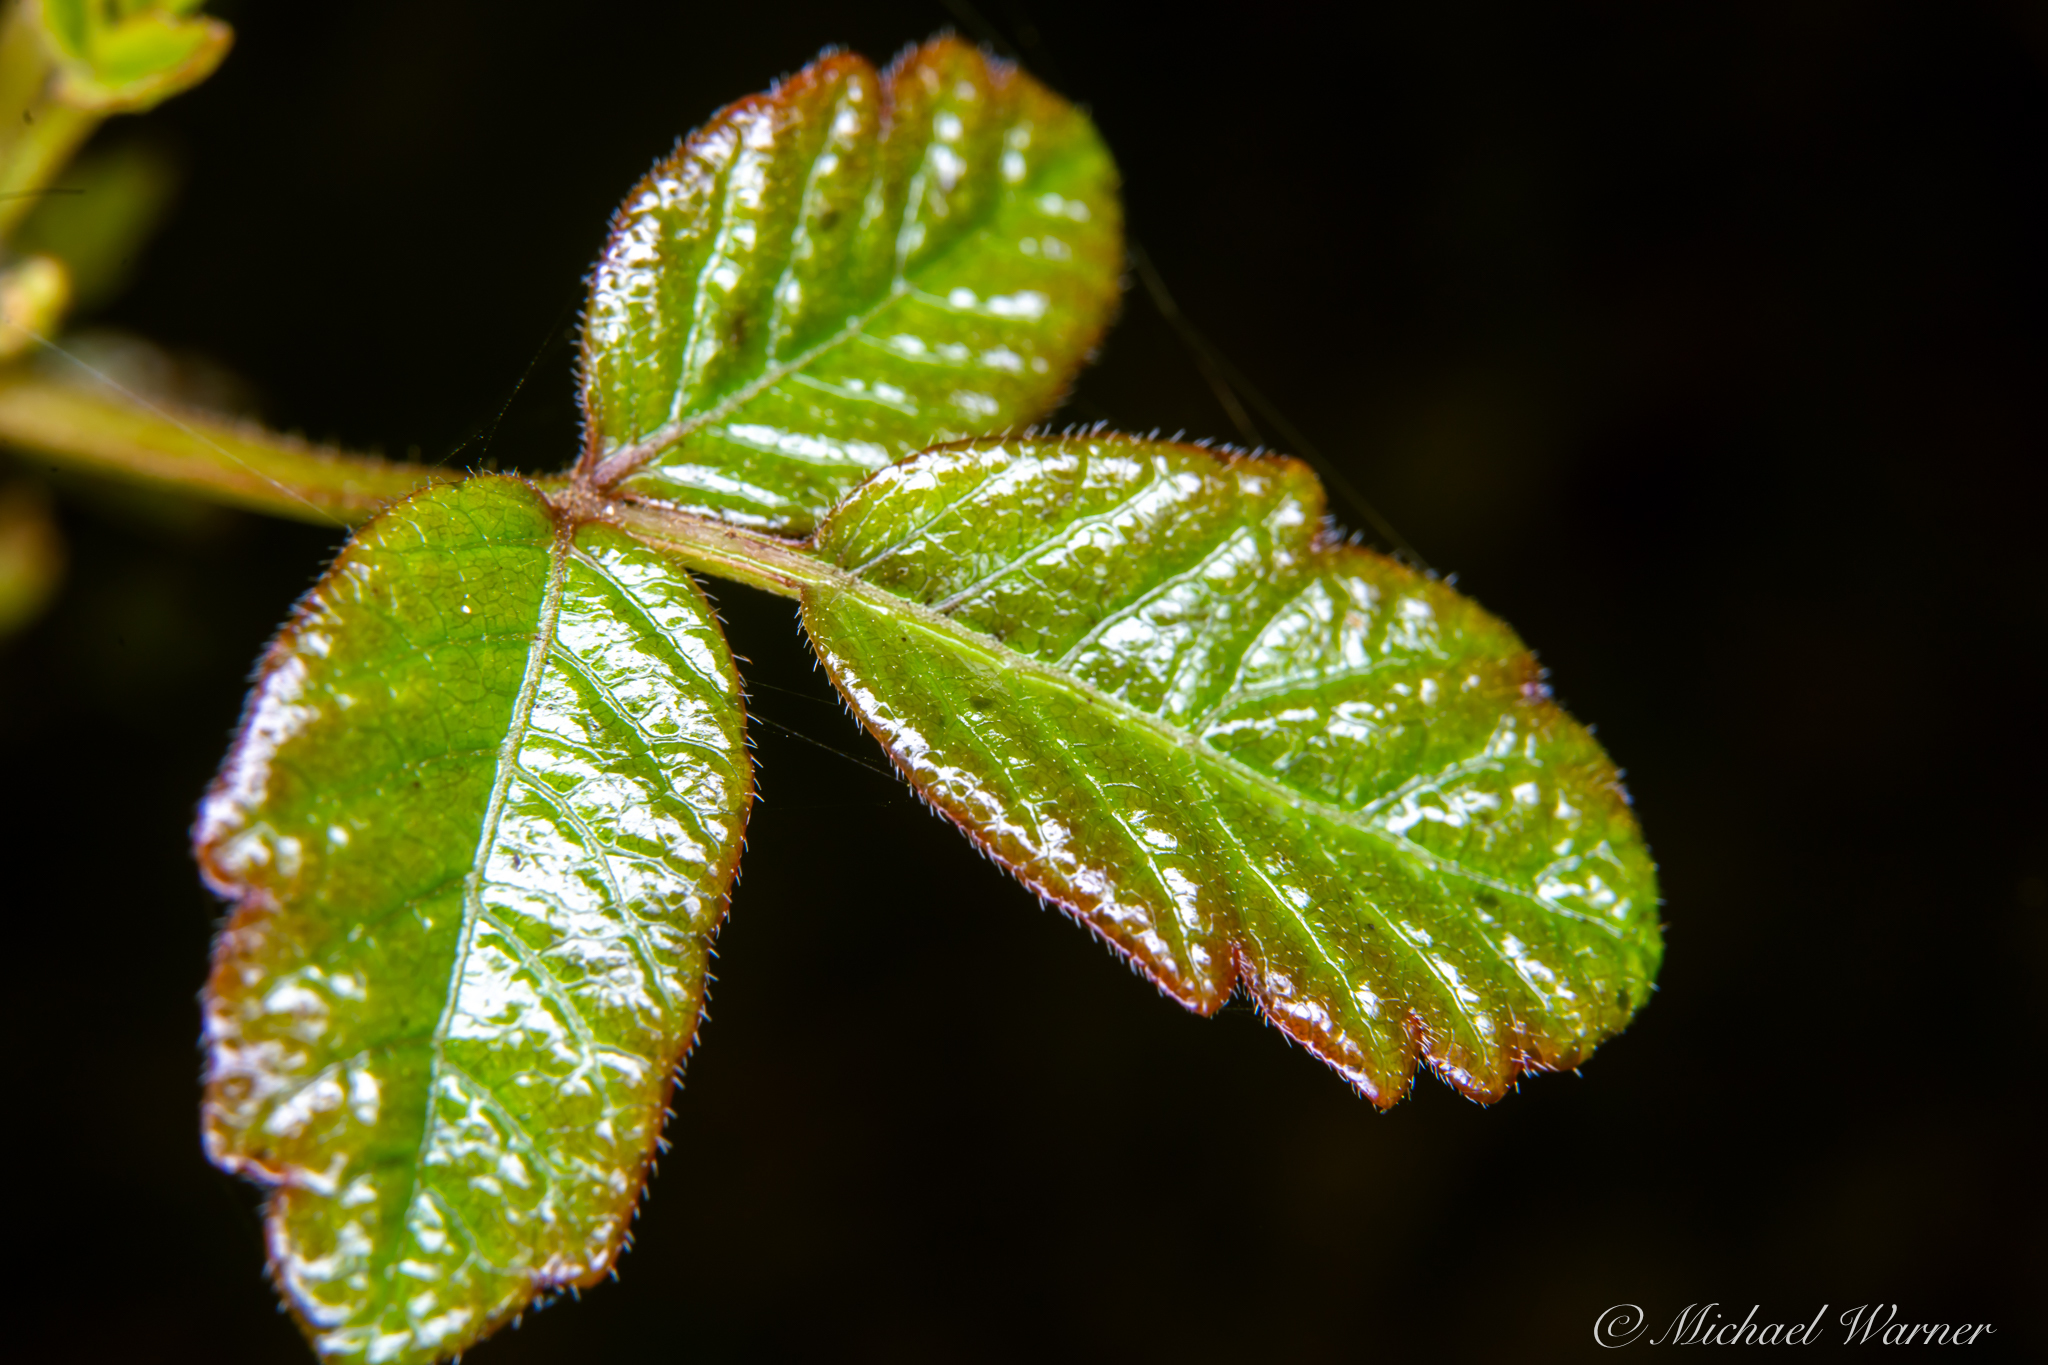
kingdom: Plantae
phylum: Tracheophyta
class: Magnoliopsida
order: Sapindales
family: Anacardiaceae
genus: Toxicodendron
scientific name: Toxicodendron diversilobum
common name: Pacific poison-oak
